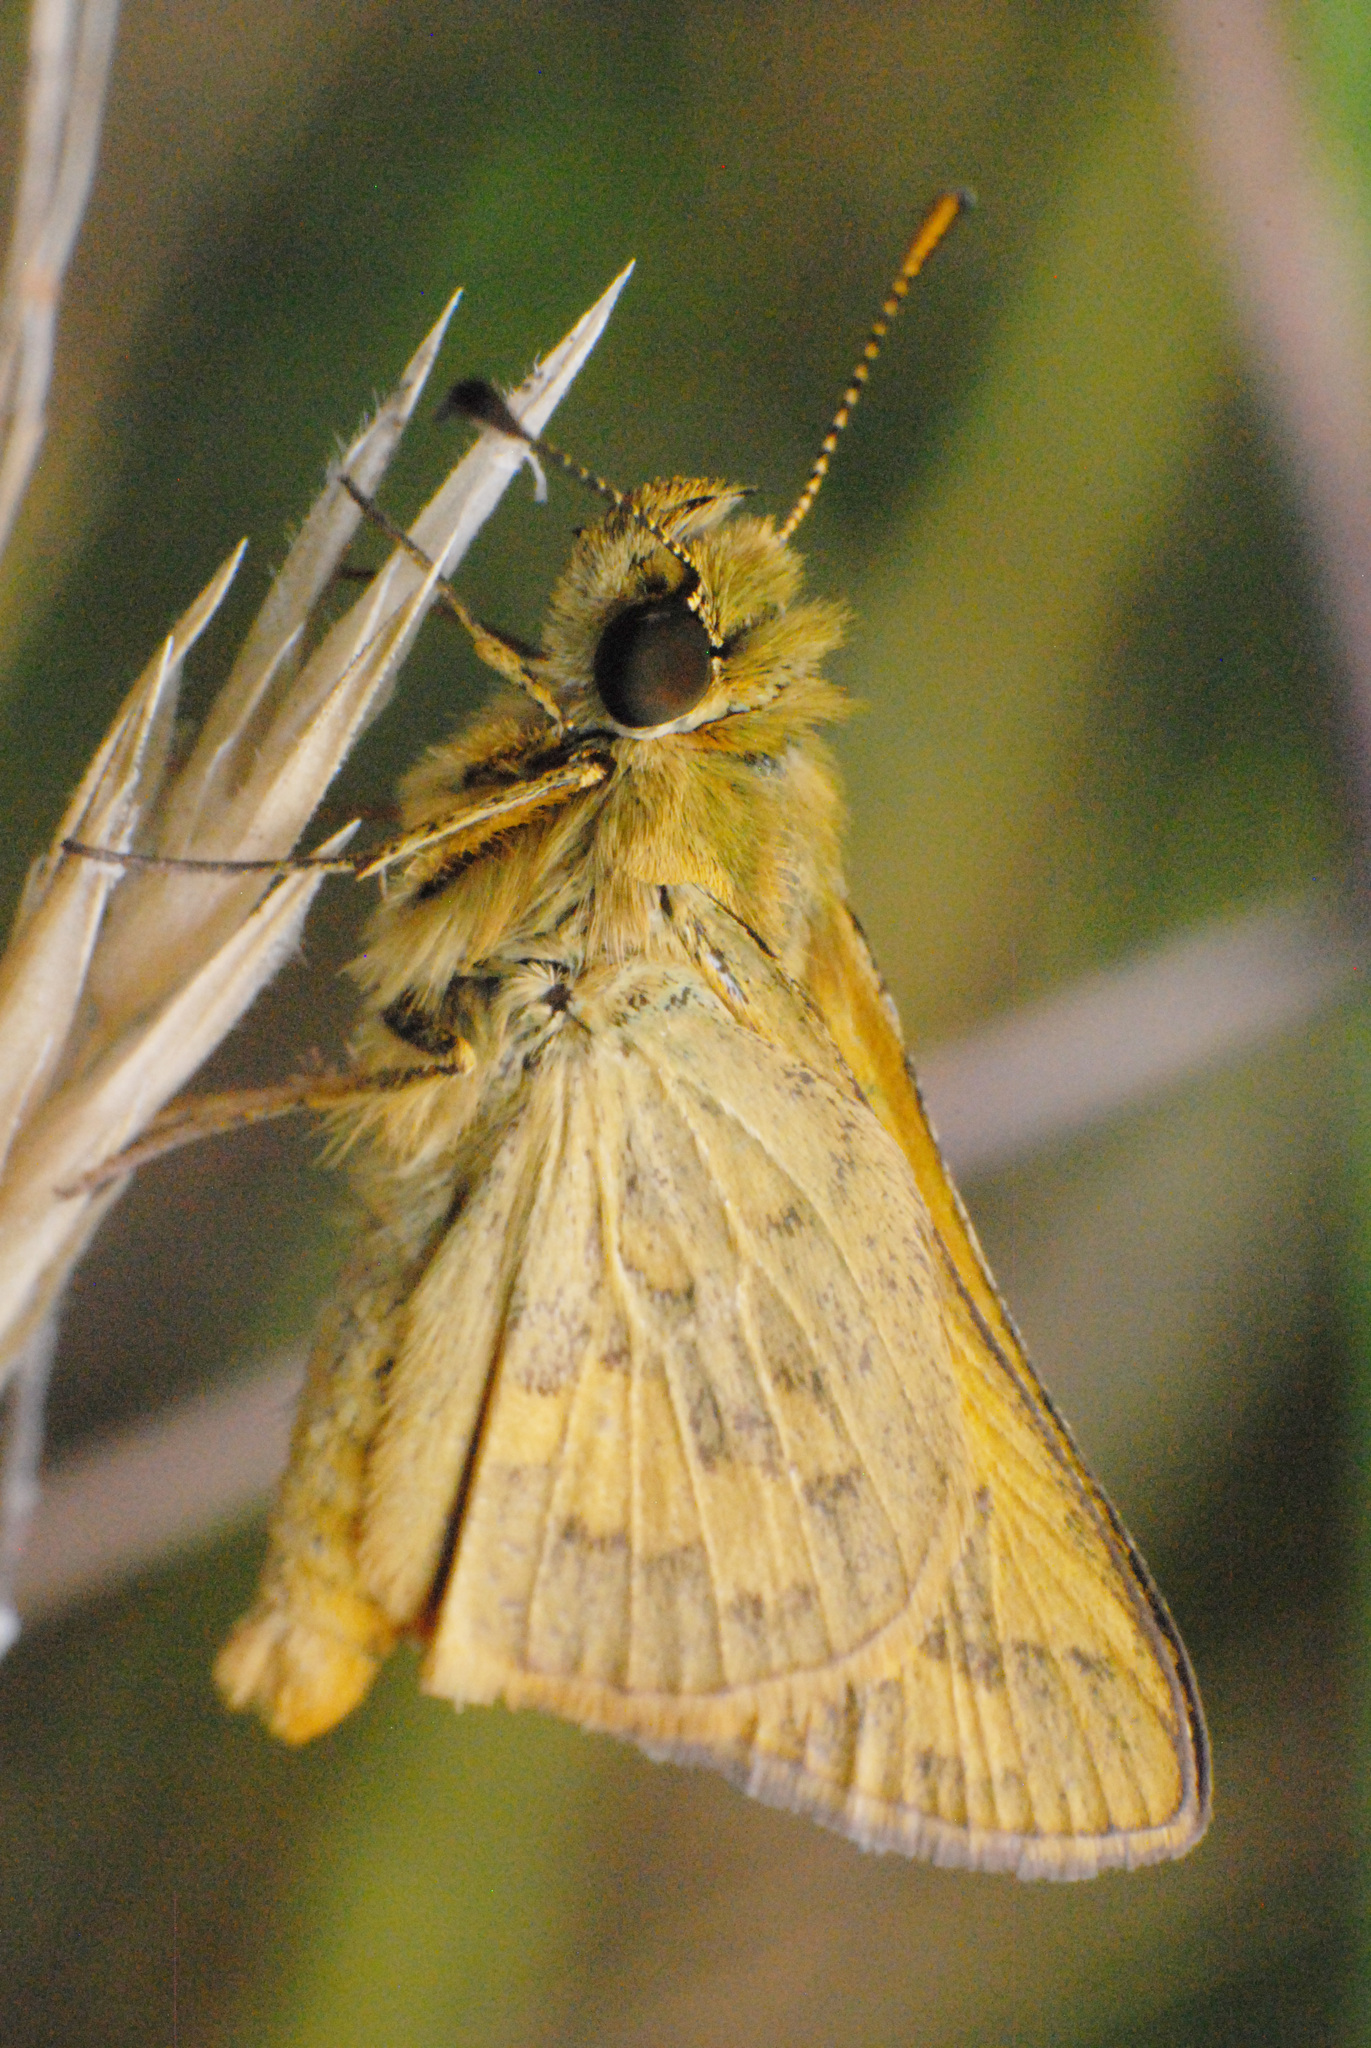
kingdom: Animalia
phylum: Arthropoda
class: Insecta
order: Lepidoptera
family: Hesperiidae
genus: Ocybadistes
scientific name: Ocybadistes walkeri
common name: Yellow-banded dart
